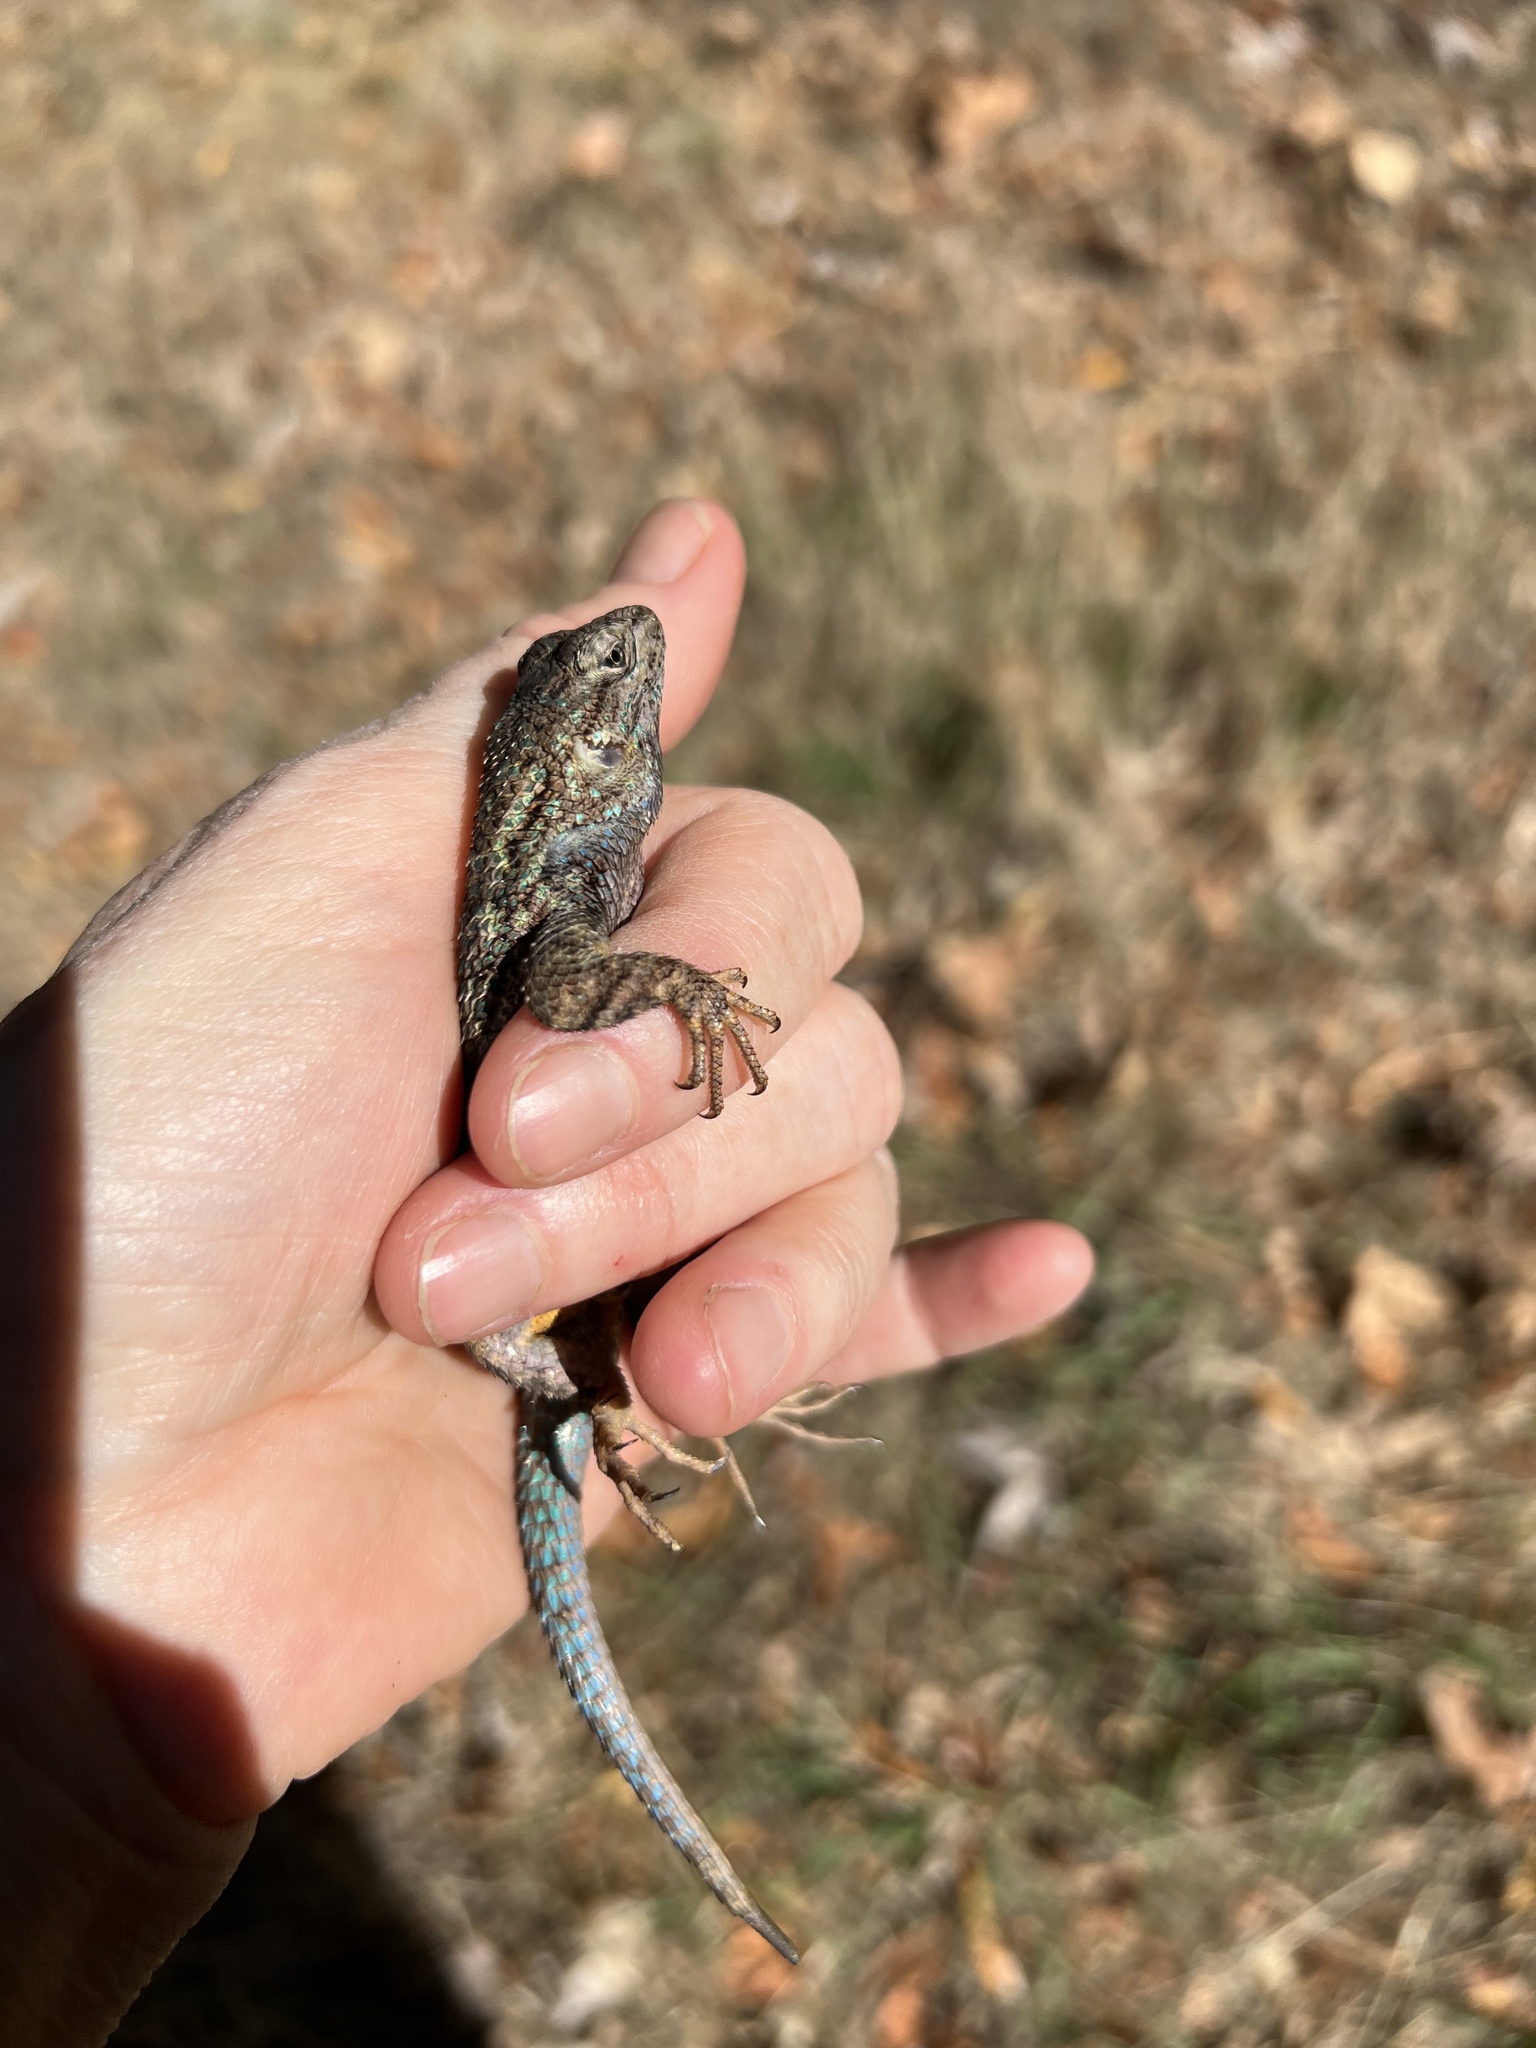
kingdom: Animalia
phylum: Chordata
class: Squamata
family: Phrynosomatidae
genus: Sceloporus
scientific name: Sceloporus occidentalis
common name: Western fence lizard
